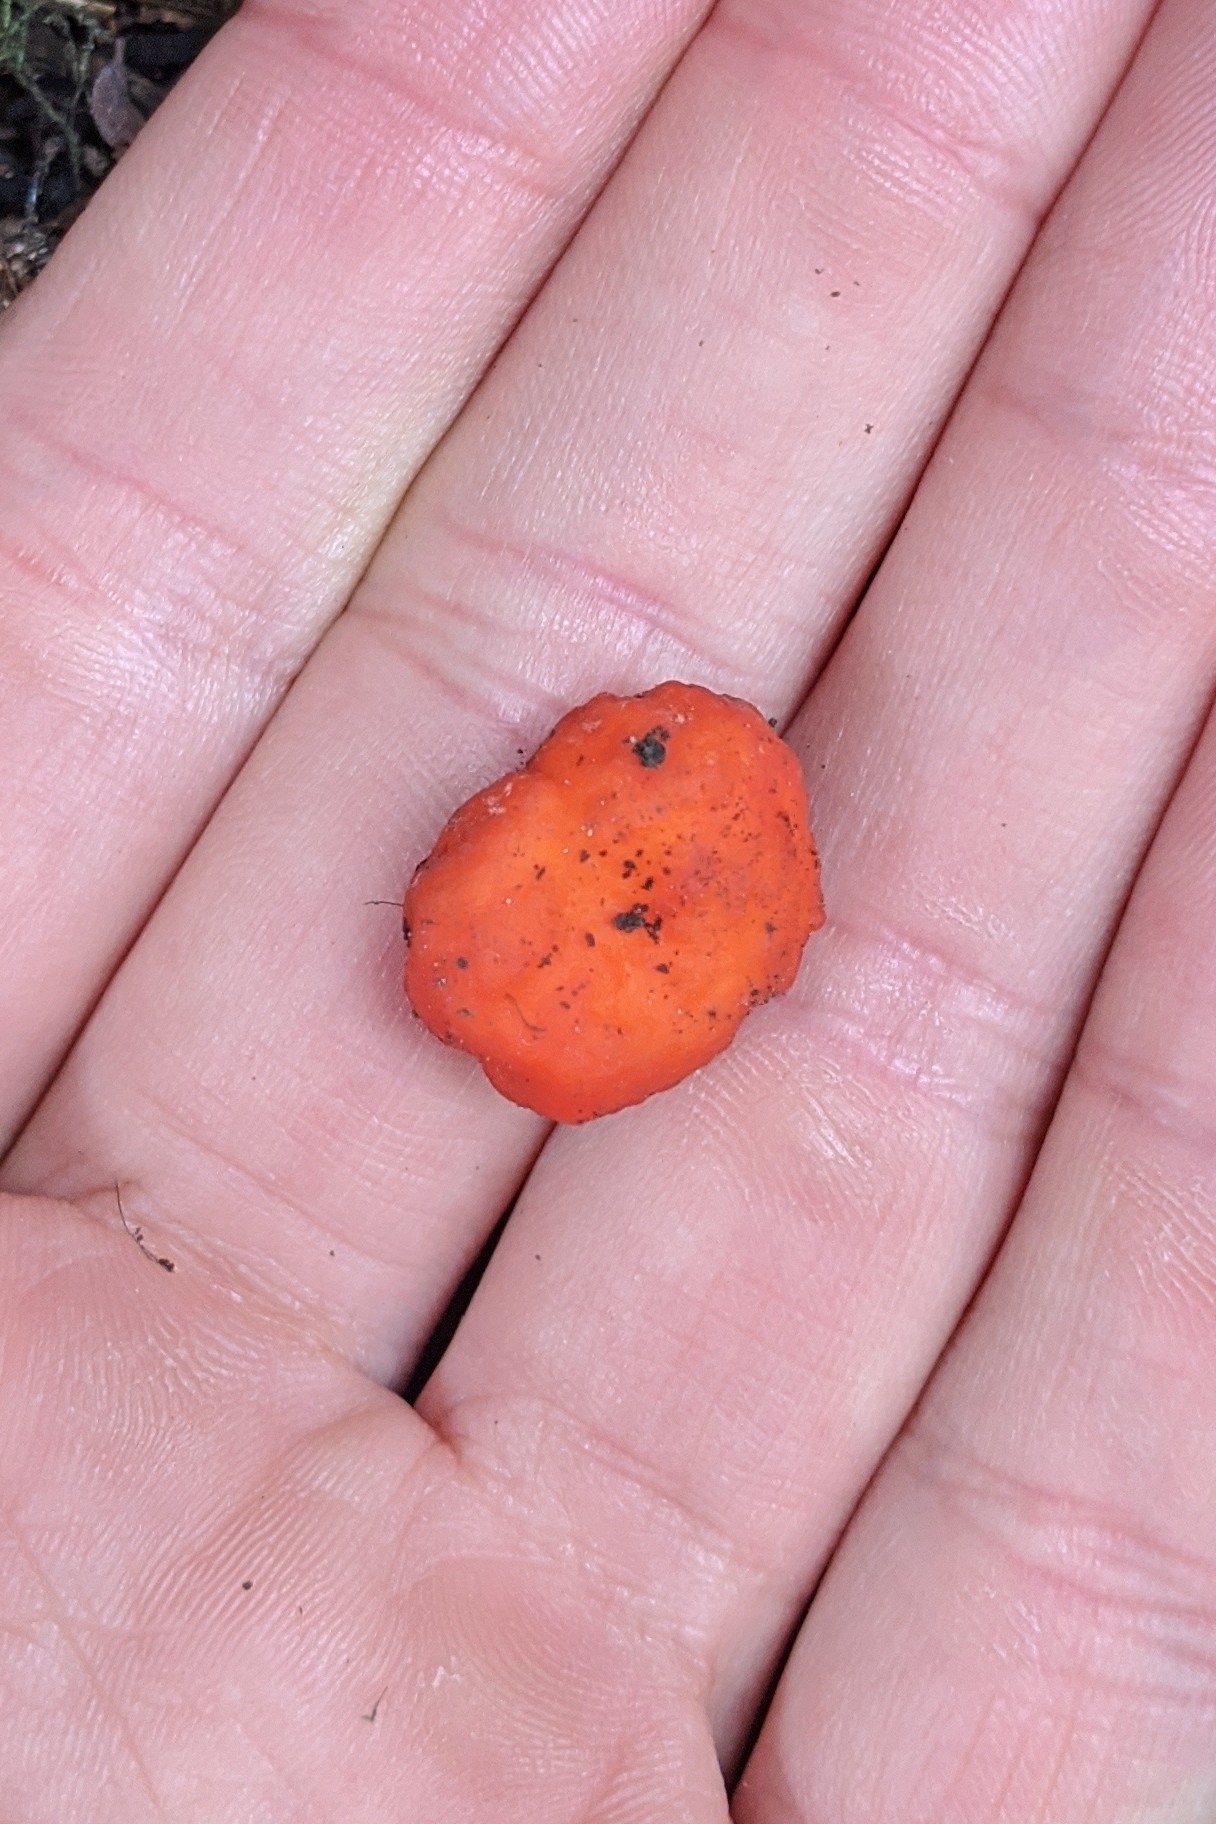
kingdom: Fungi
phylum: Ascomycota
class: Pezizomycetes
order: Pezizales
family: Pyronemataceae
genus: Paurocotylis
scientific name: Paurocotylis pila
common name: Scarlet berry truffle
